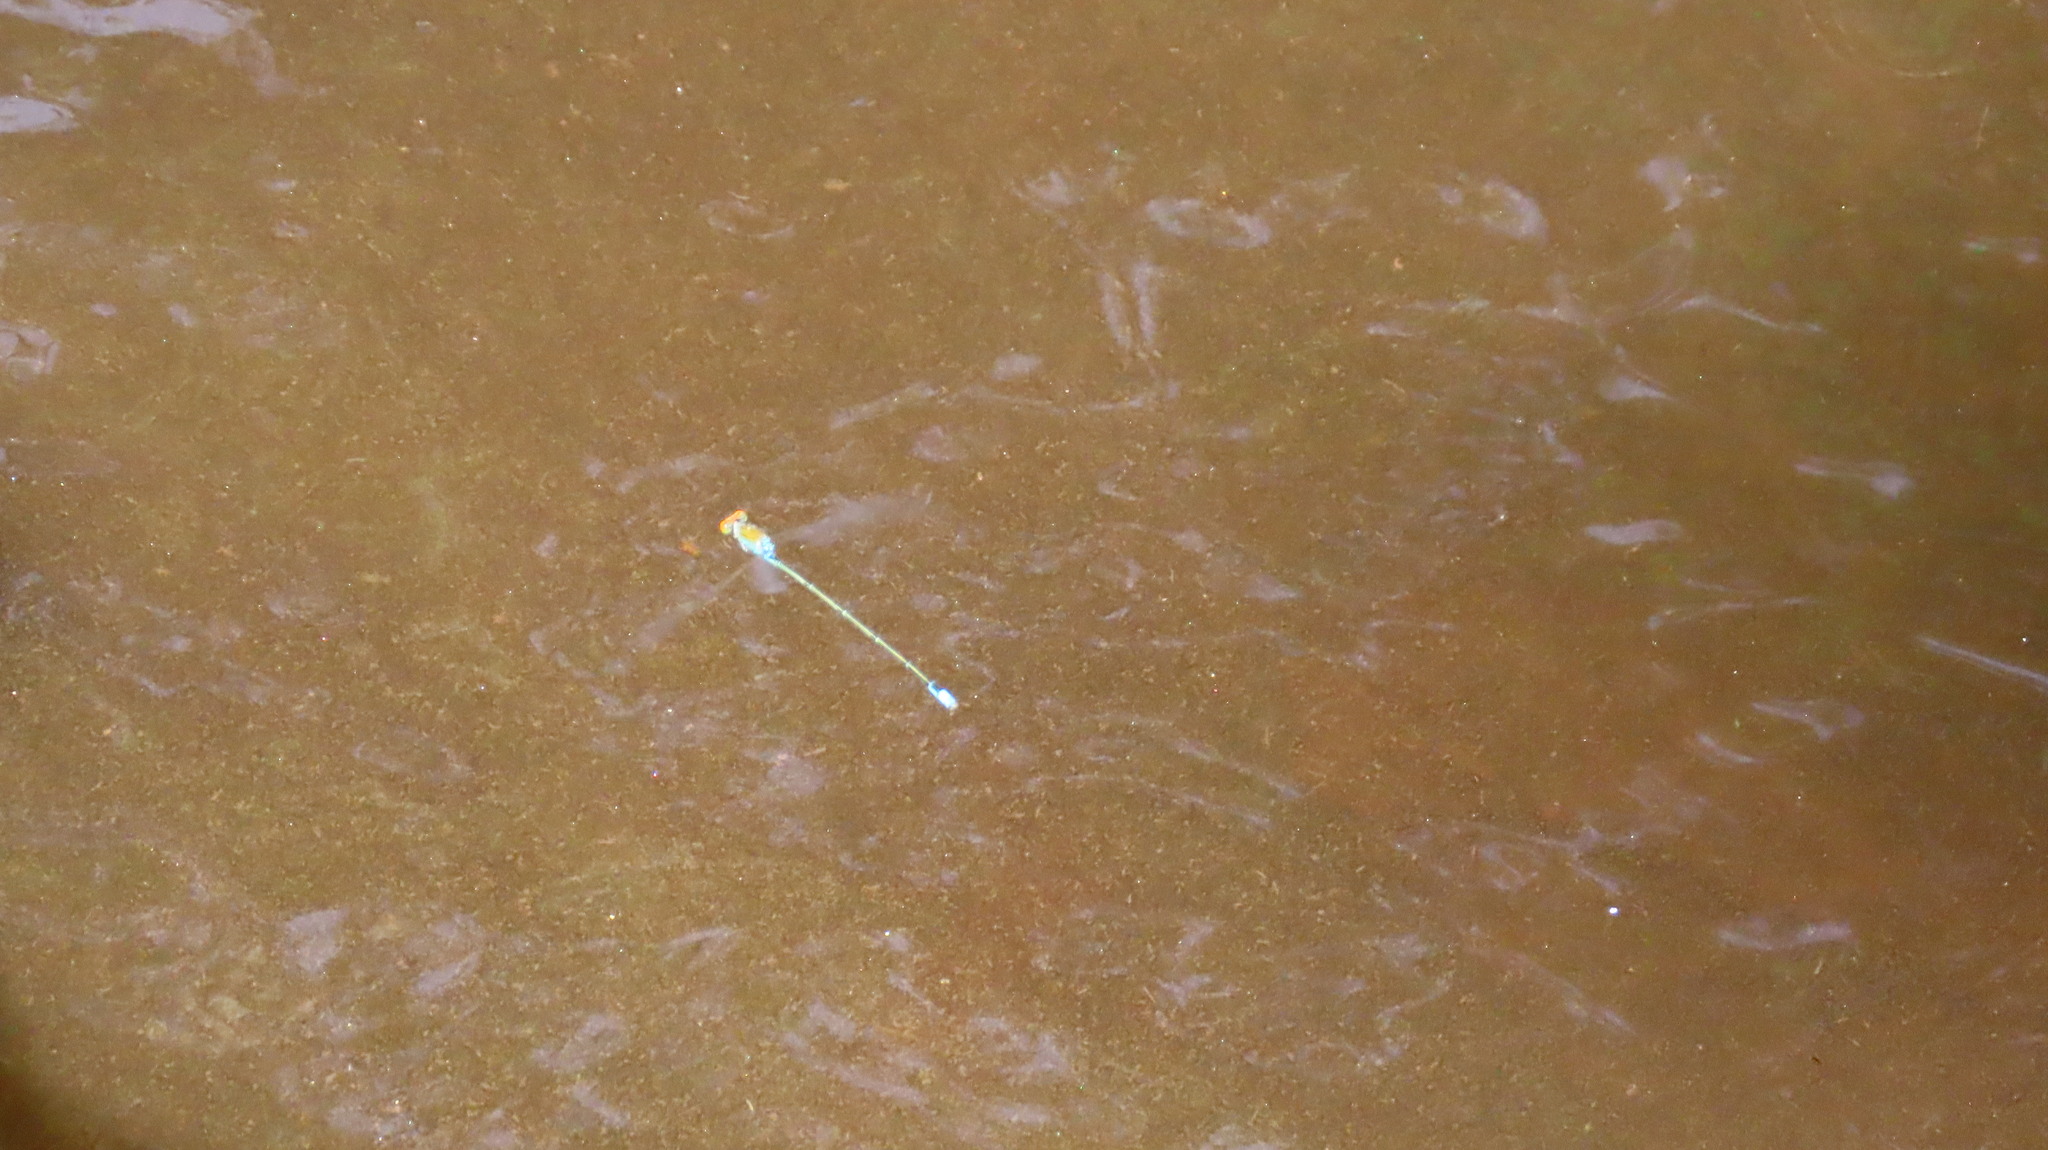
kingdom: Animalia
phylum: Arthropoda
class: Insecta
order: Odonata
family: Coenagrionidae
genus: Pseudagrion
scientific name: Pseudagrion rubriceps
